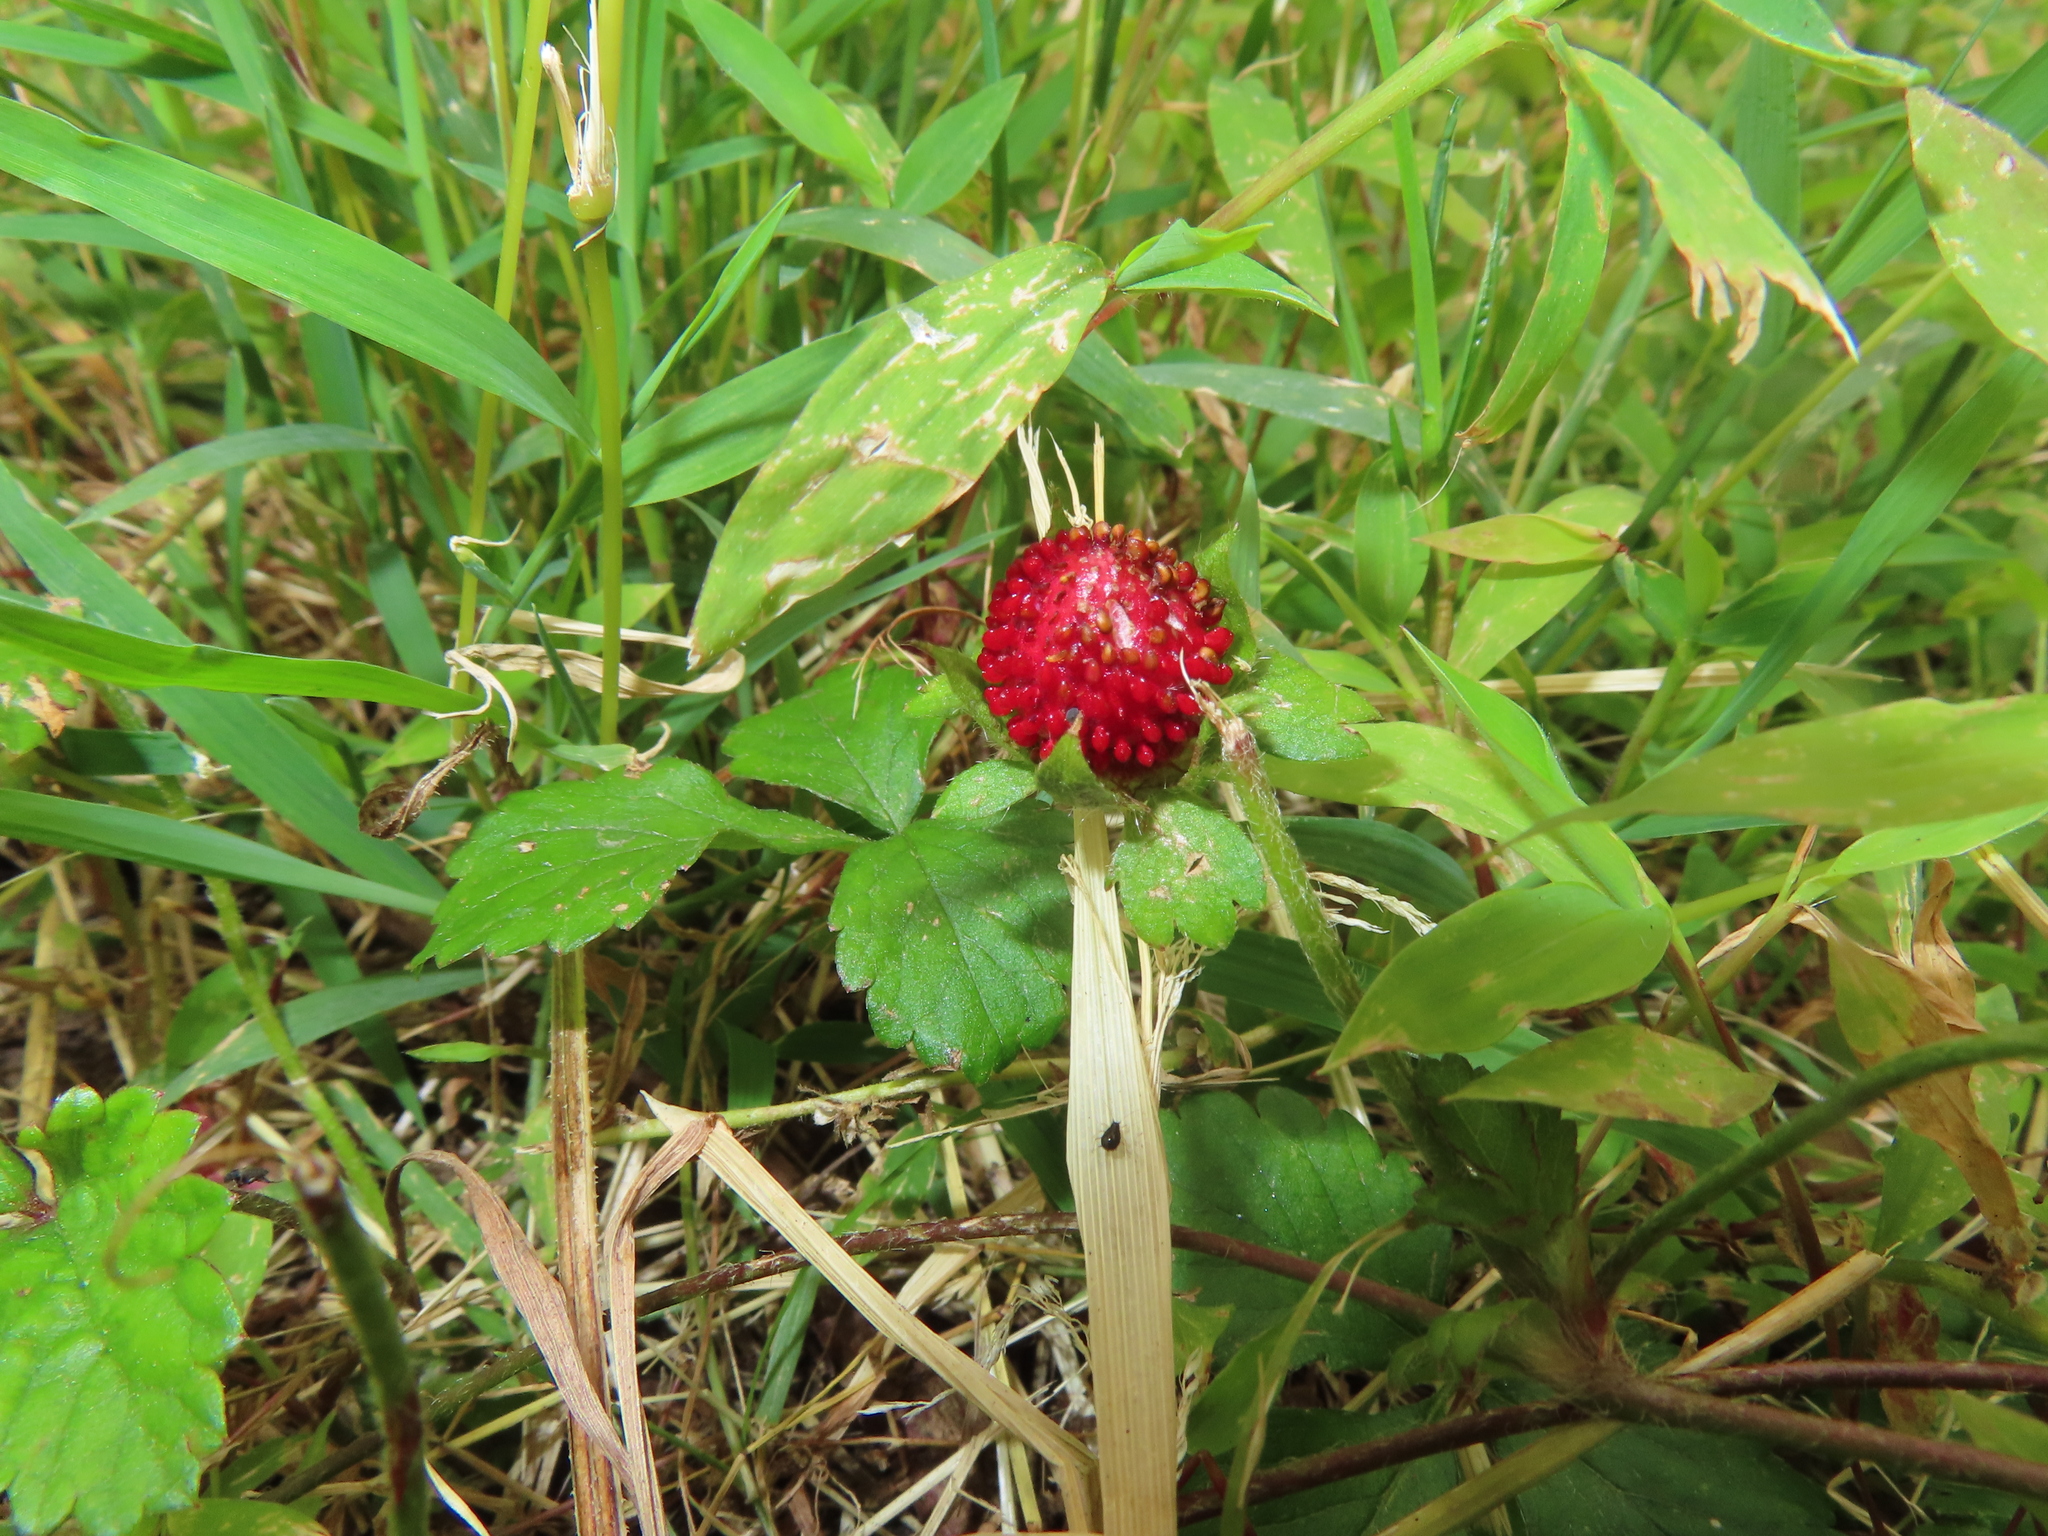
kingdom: Plantae
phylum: Tracheophyta
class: Magnoliopsida
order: Rosales
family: Rosaceae
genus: Potentilla
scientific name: Potentilla indica
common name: Yellow-flowered strawberry
